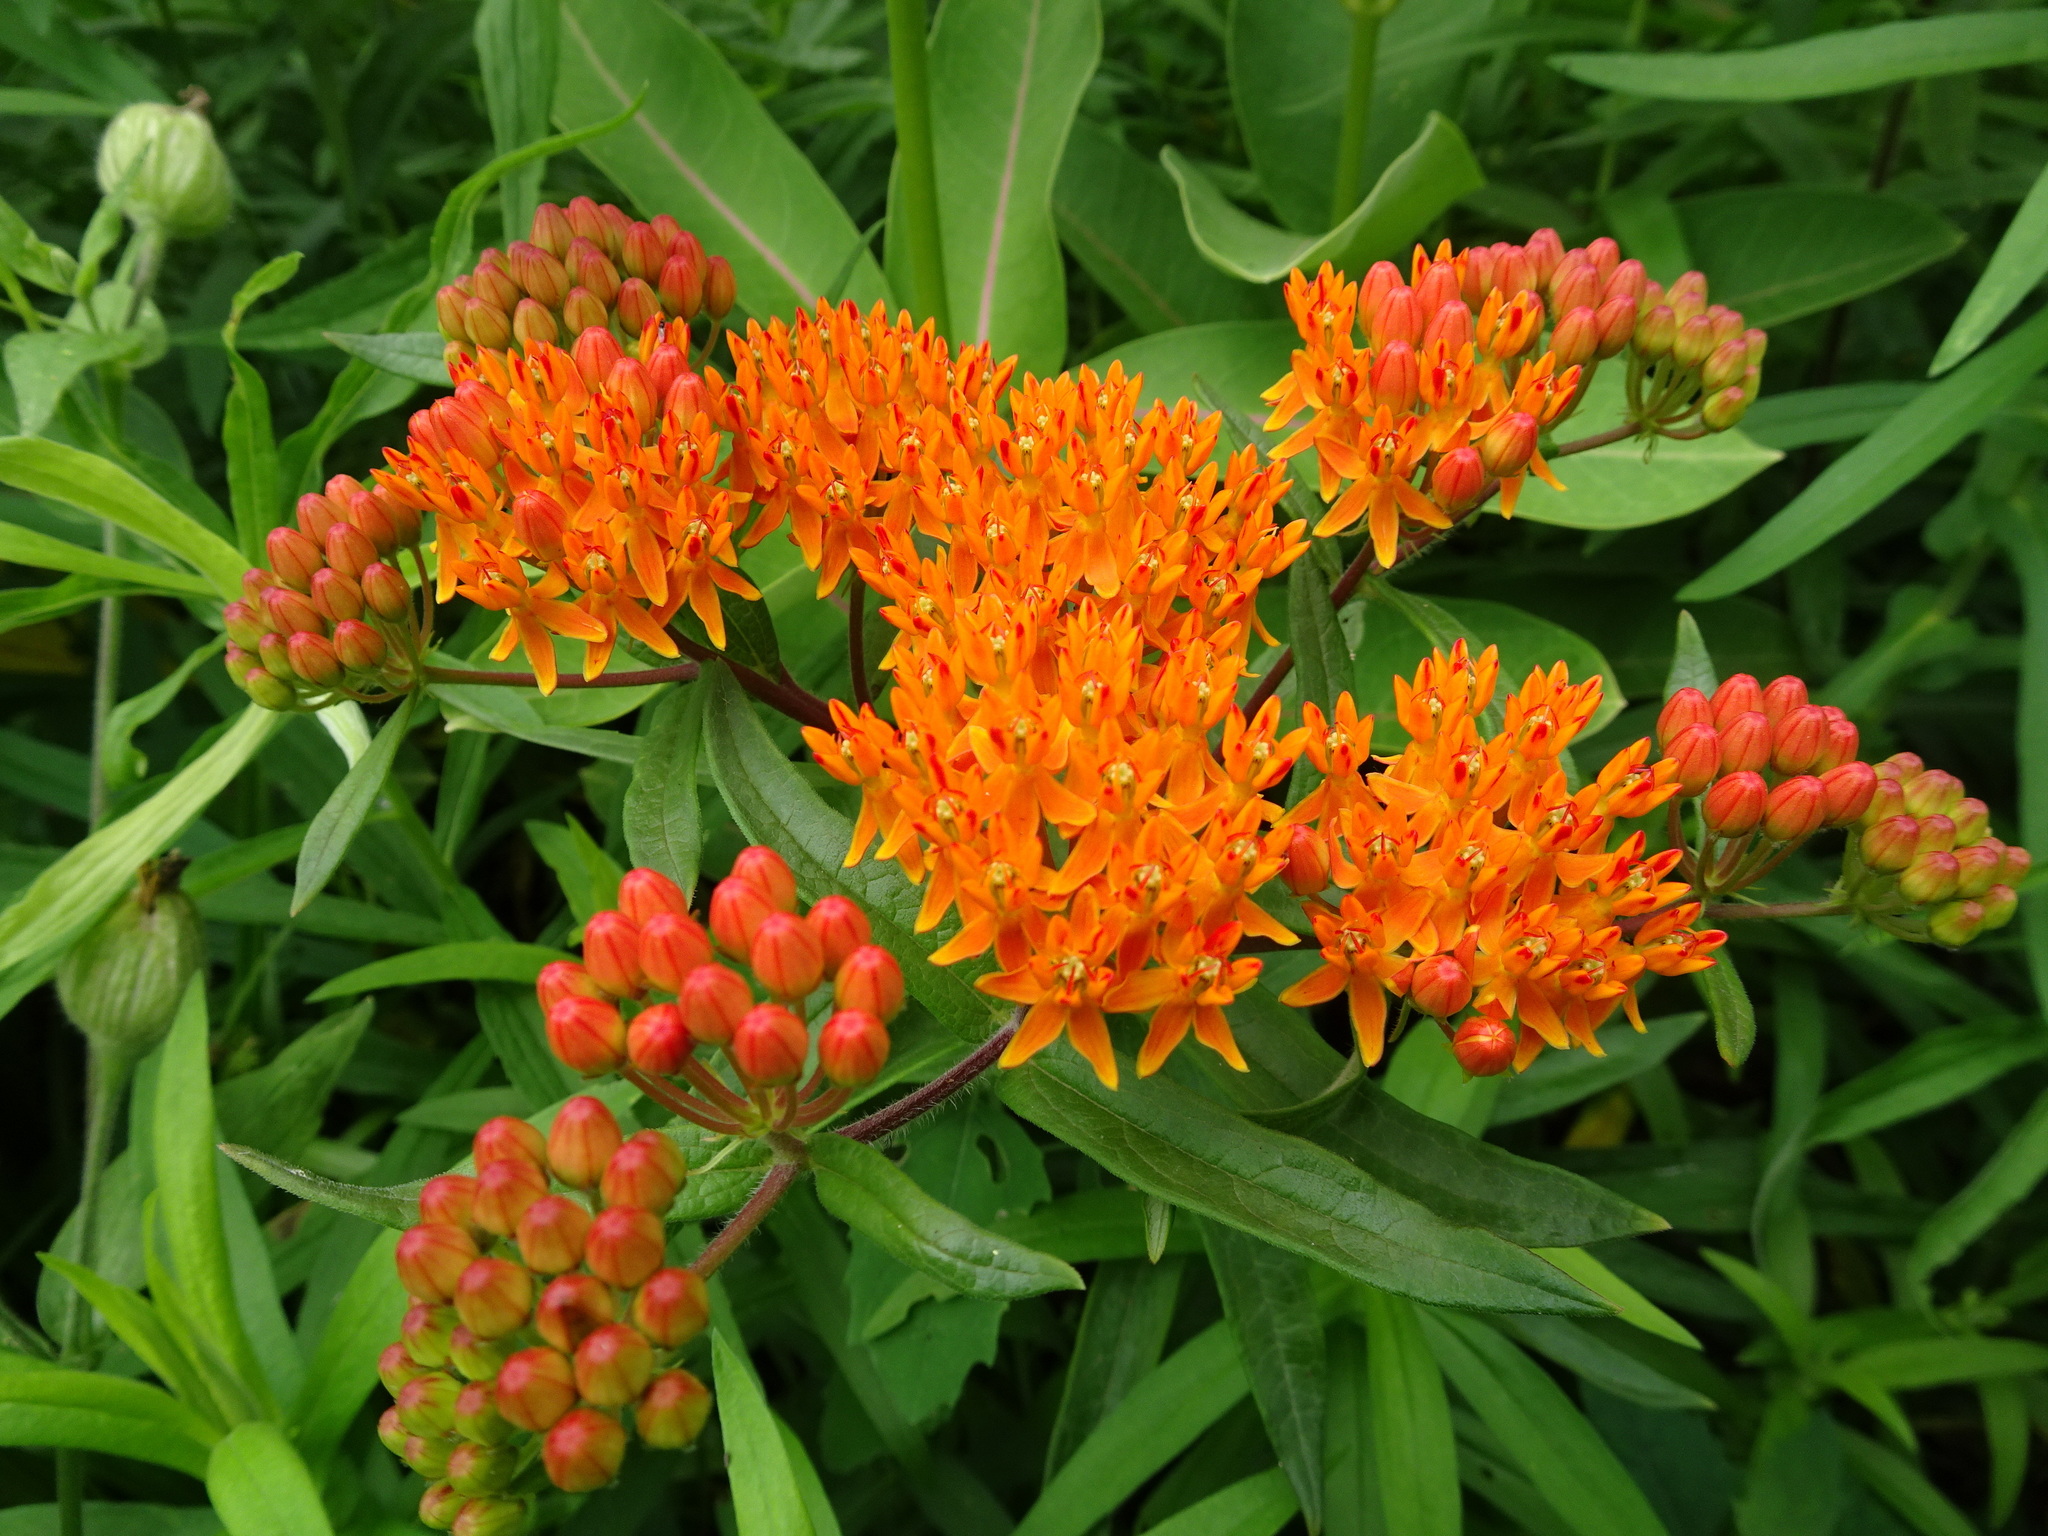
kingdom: Plantae
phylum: Tracheophyta
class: Magnoliopsida
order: Gentianales
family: Apocynaceae
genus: Asclepias
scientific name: Asclepias tuberosa
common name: Butterfly milkweed
